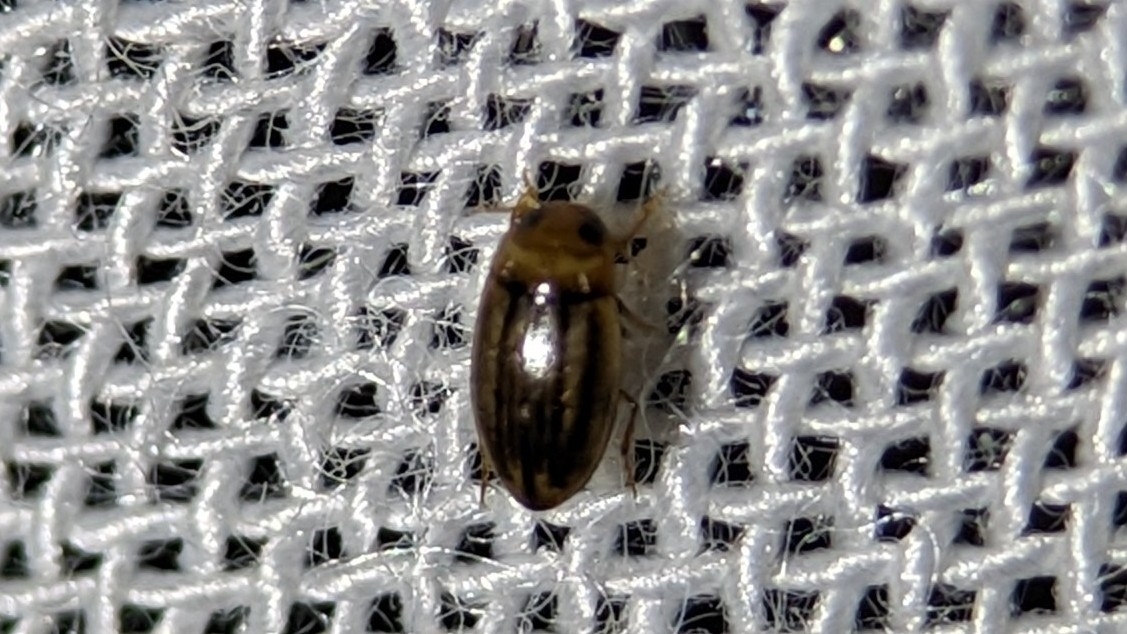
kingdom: Animalia
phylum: Arthropoda
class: Insecta
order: Coleoptera
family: Dytiscidae
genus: Neobidessus
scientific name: Neobidessus pullus
